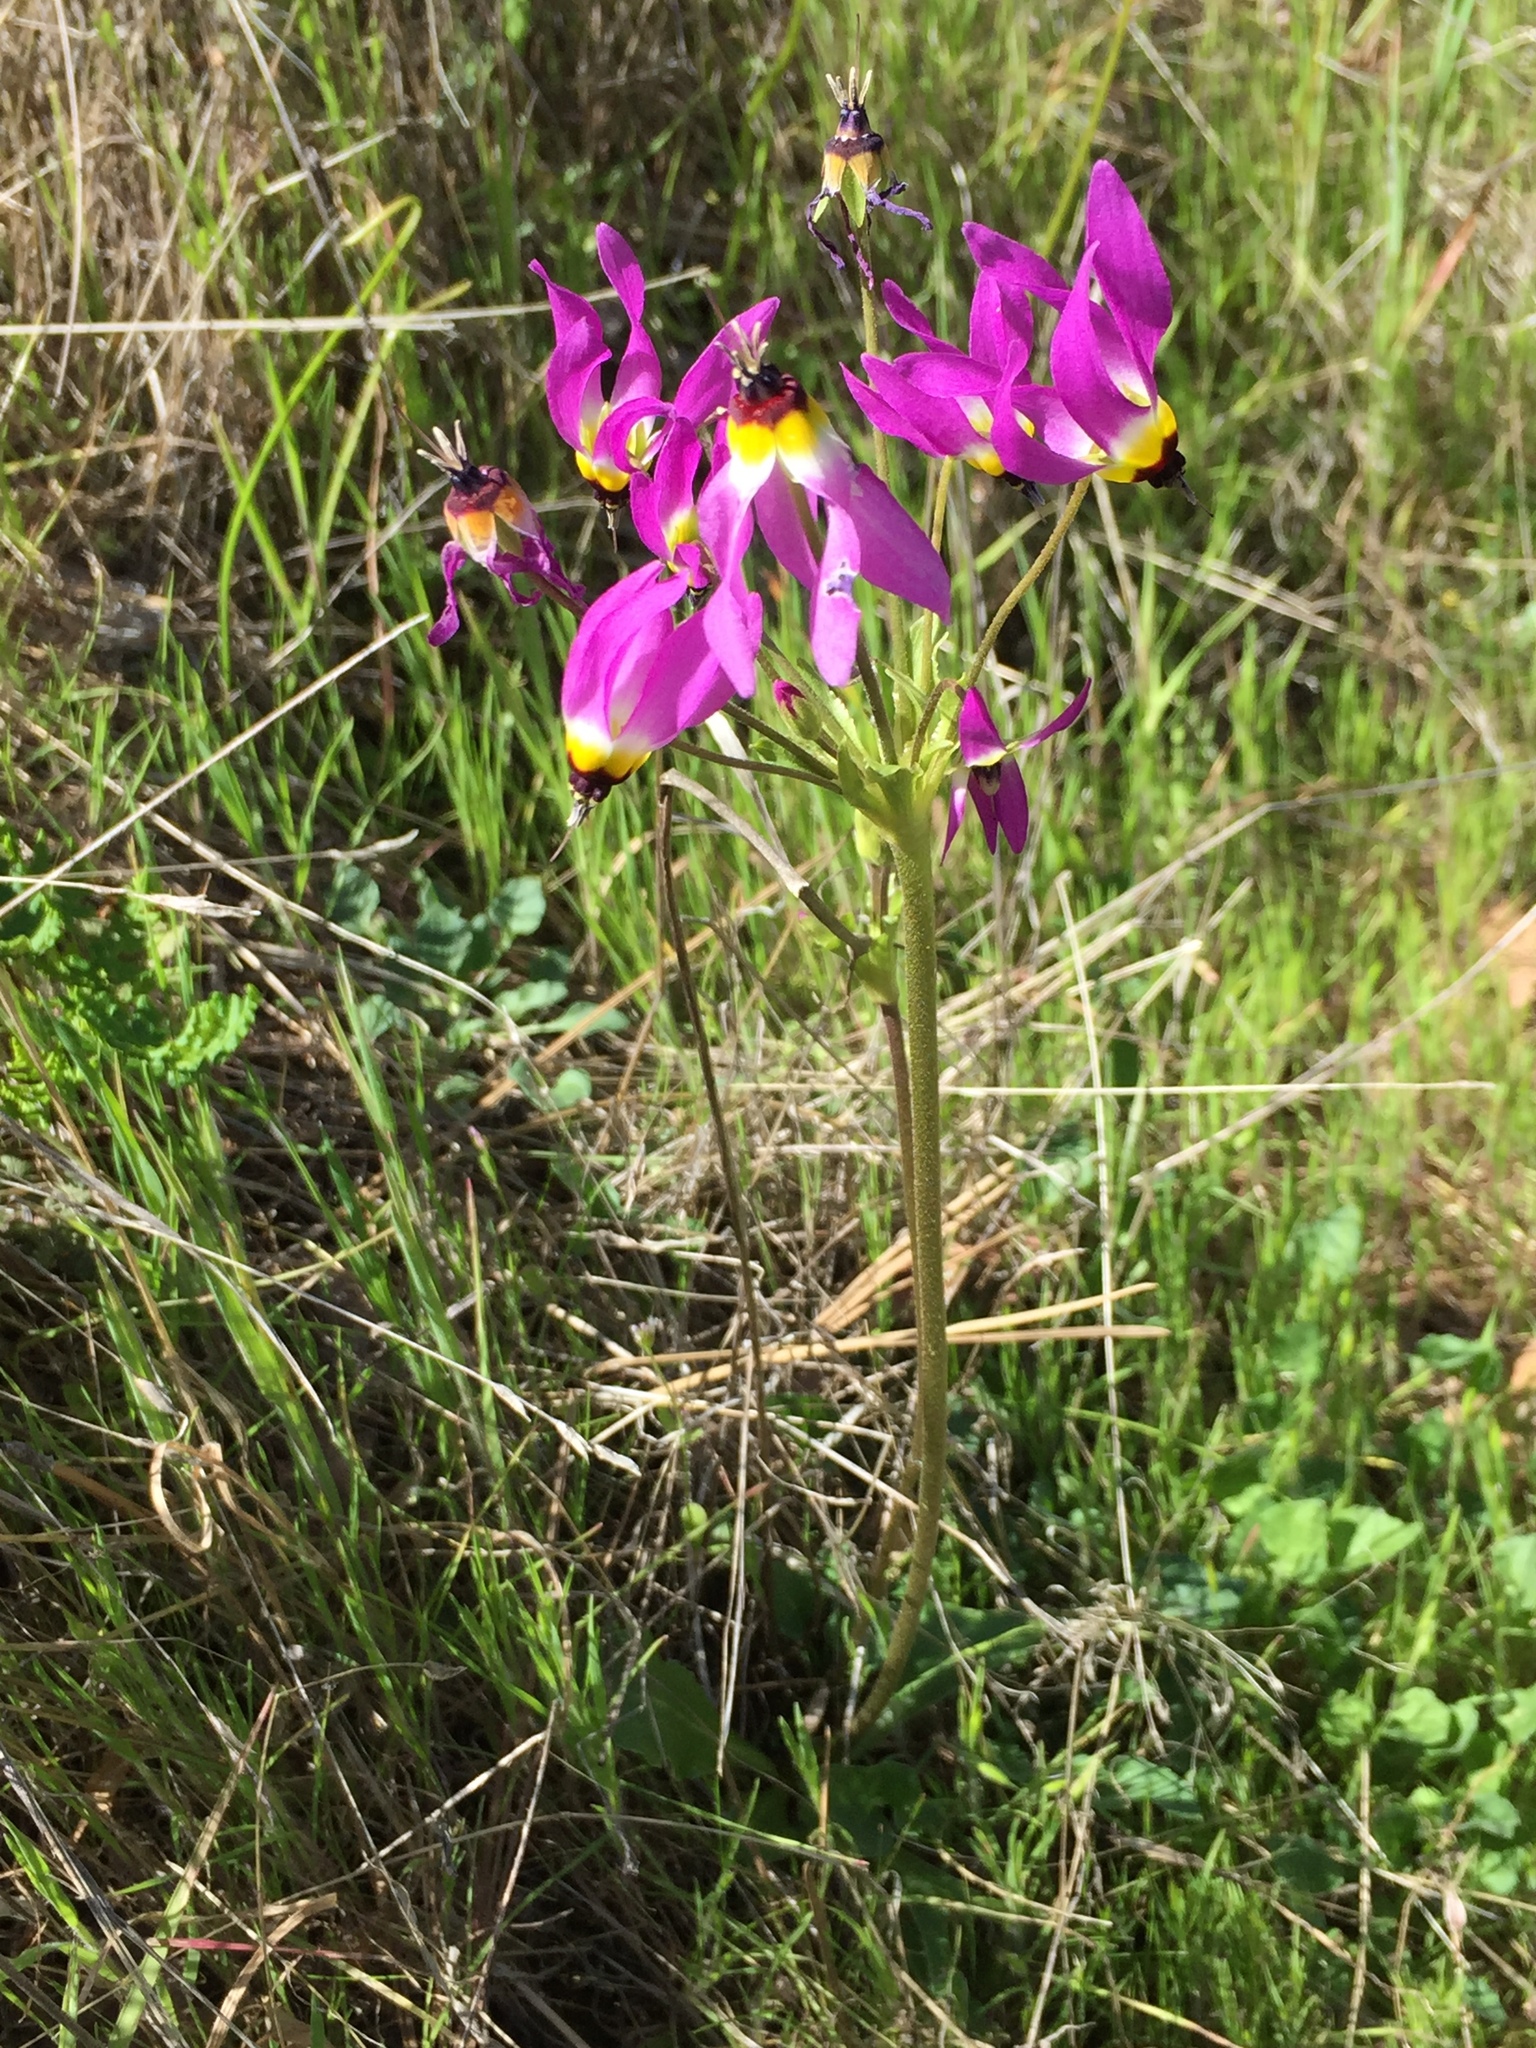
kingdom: Plantae
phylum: Tracheophyta
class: Magnoliopsida
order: Ericales
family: Primulaceae
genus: Dodecatheon
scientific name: Dodecatheon clevelandii
